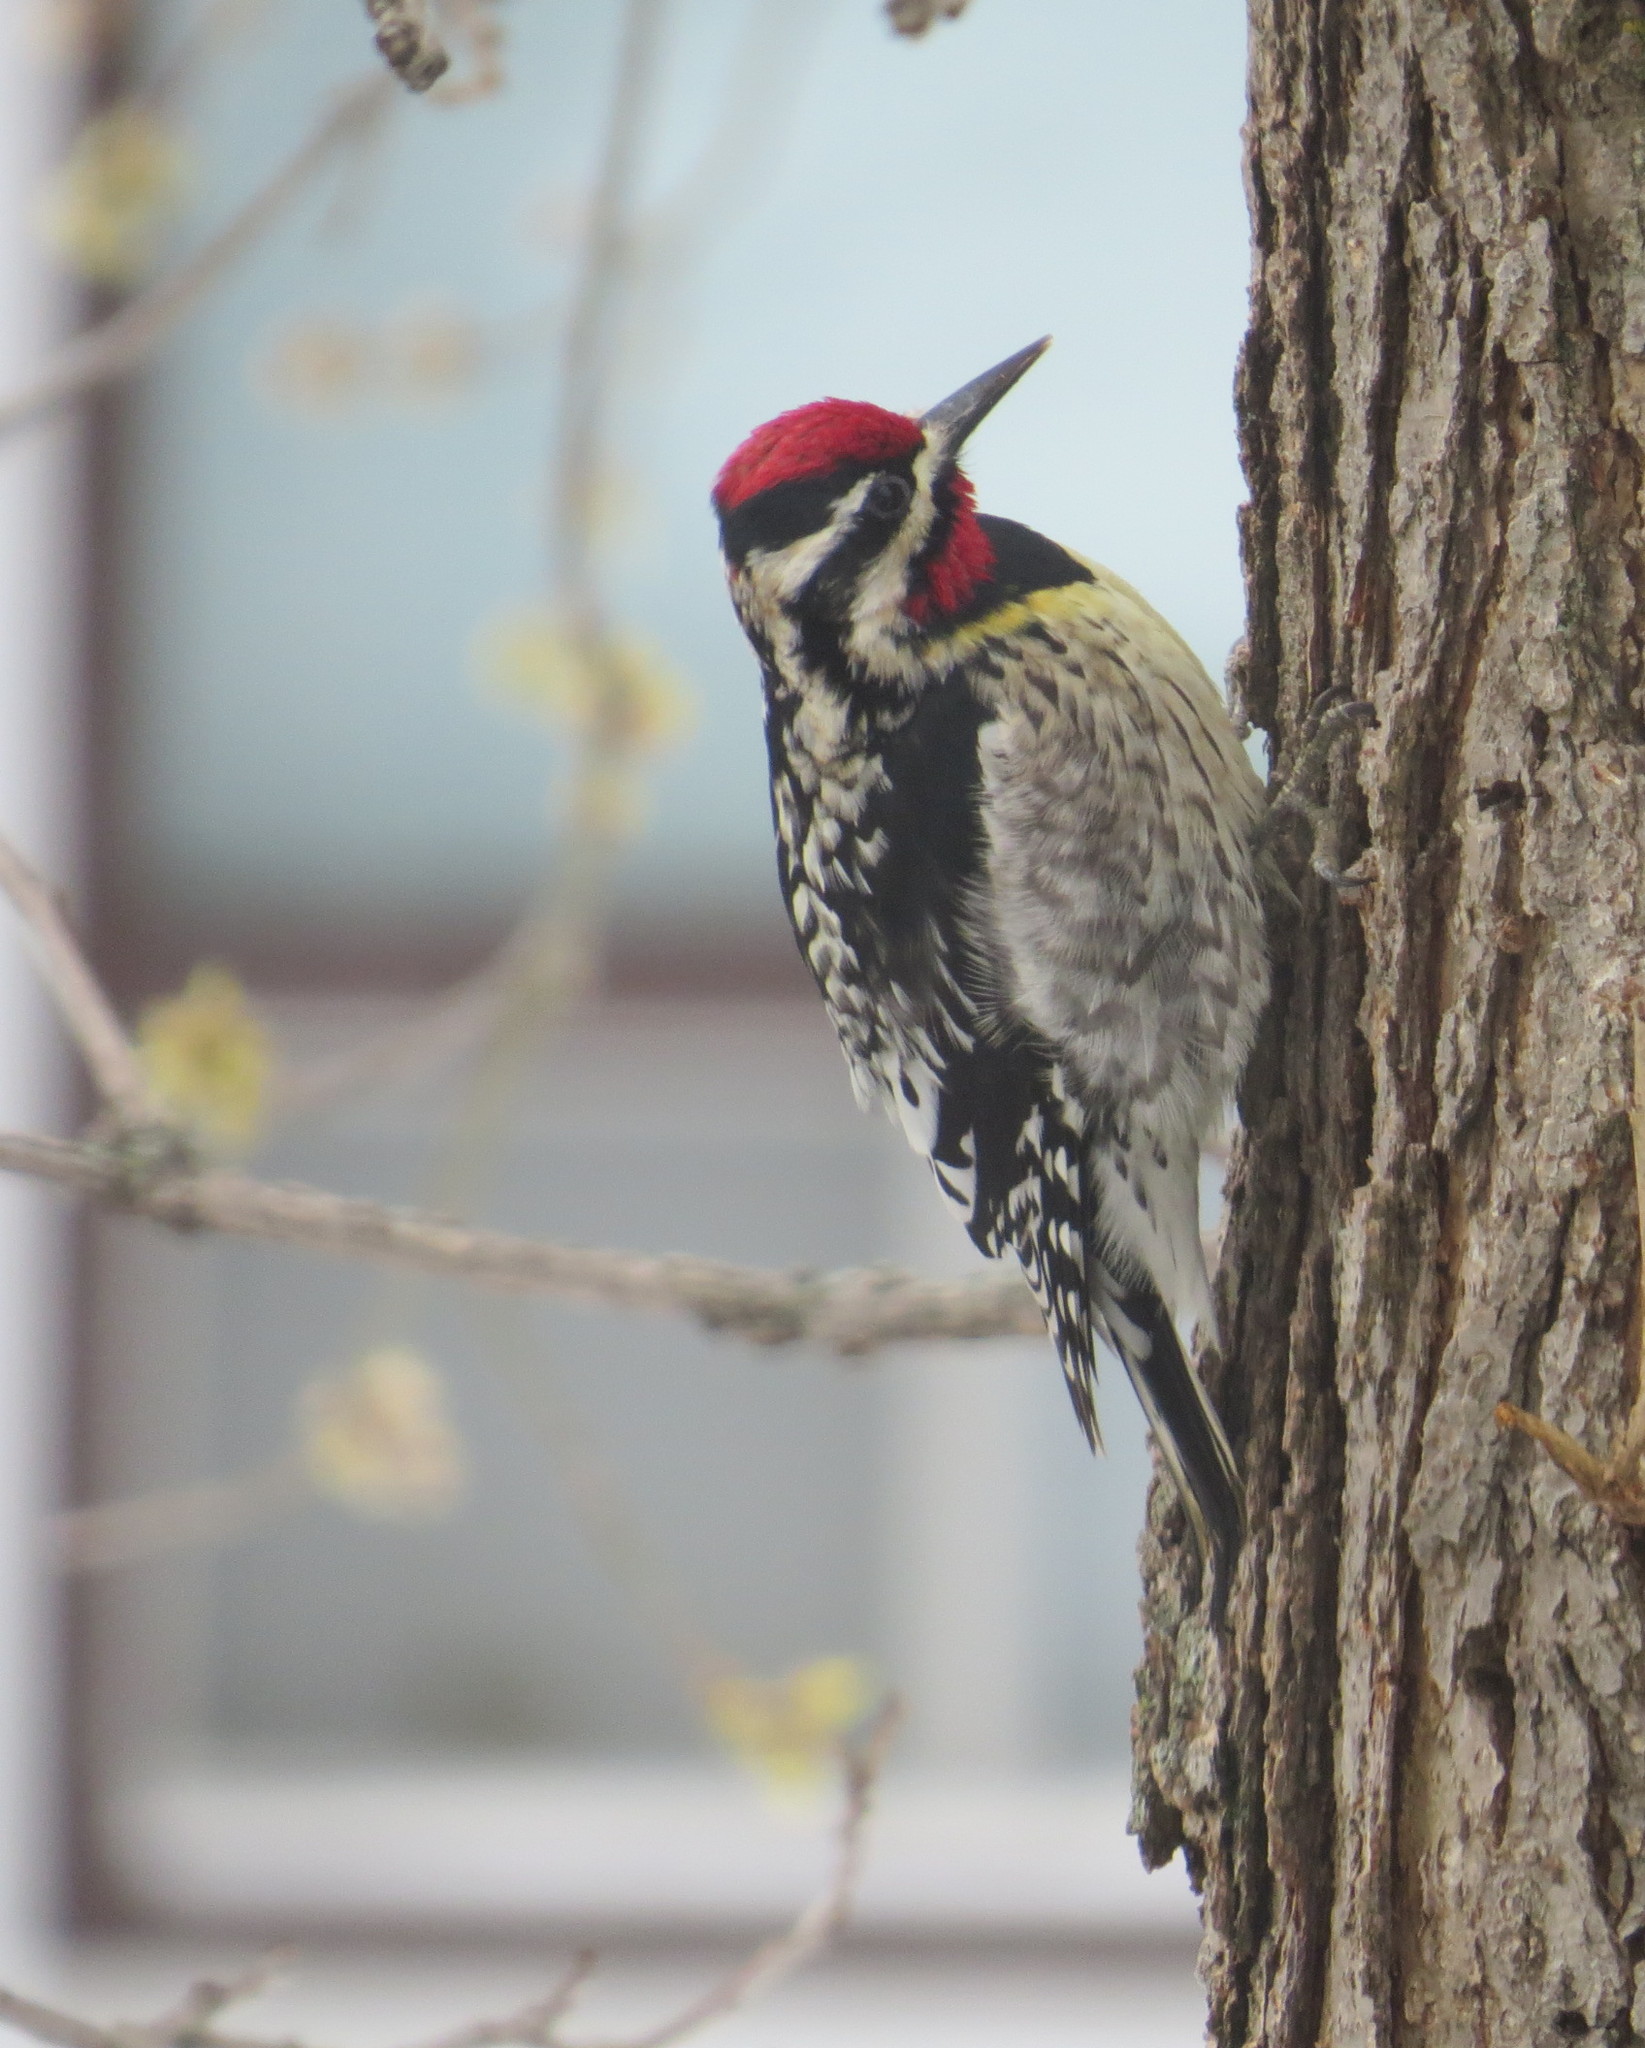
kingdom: Animalia
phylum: Chordata
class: Aves
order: Piciformes
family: Picidae
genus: Sphyrapicus
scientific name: Sphyrapicus varius
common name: Yellow-bellied sapsucker
